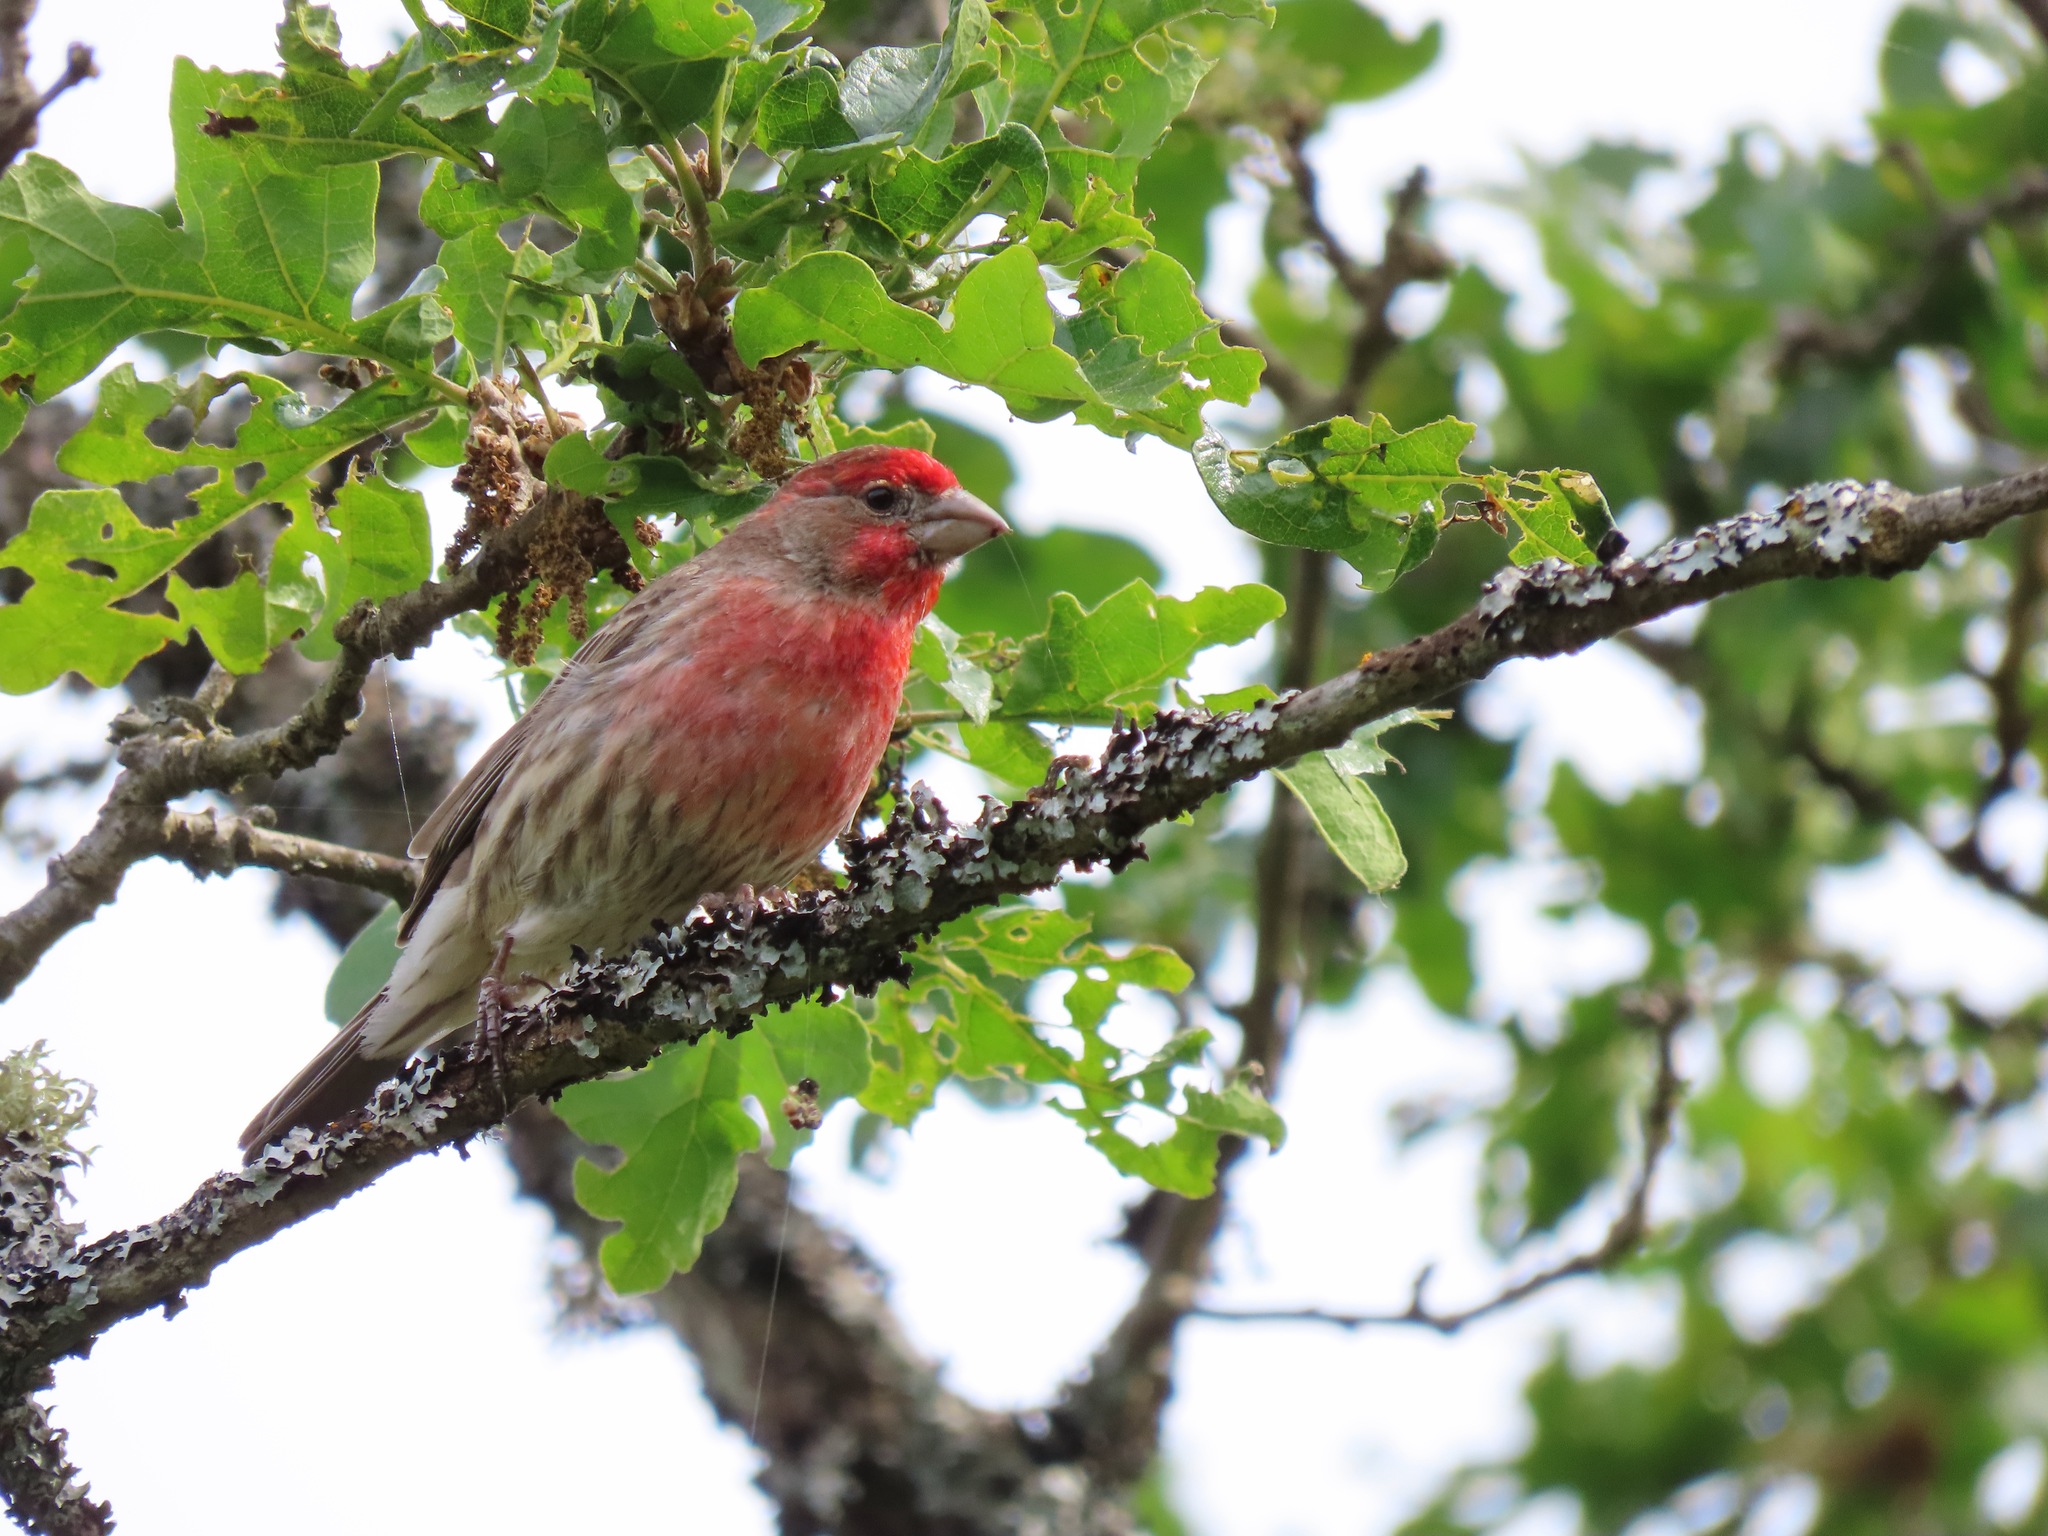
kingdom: Animalia
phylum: Chordata
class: Aves
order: Passeriformes
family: Fringillidae
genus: Haemorhous
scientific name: Haemorhous mexicanus
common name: House finch
